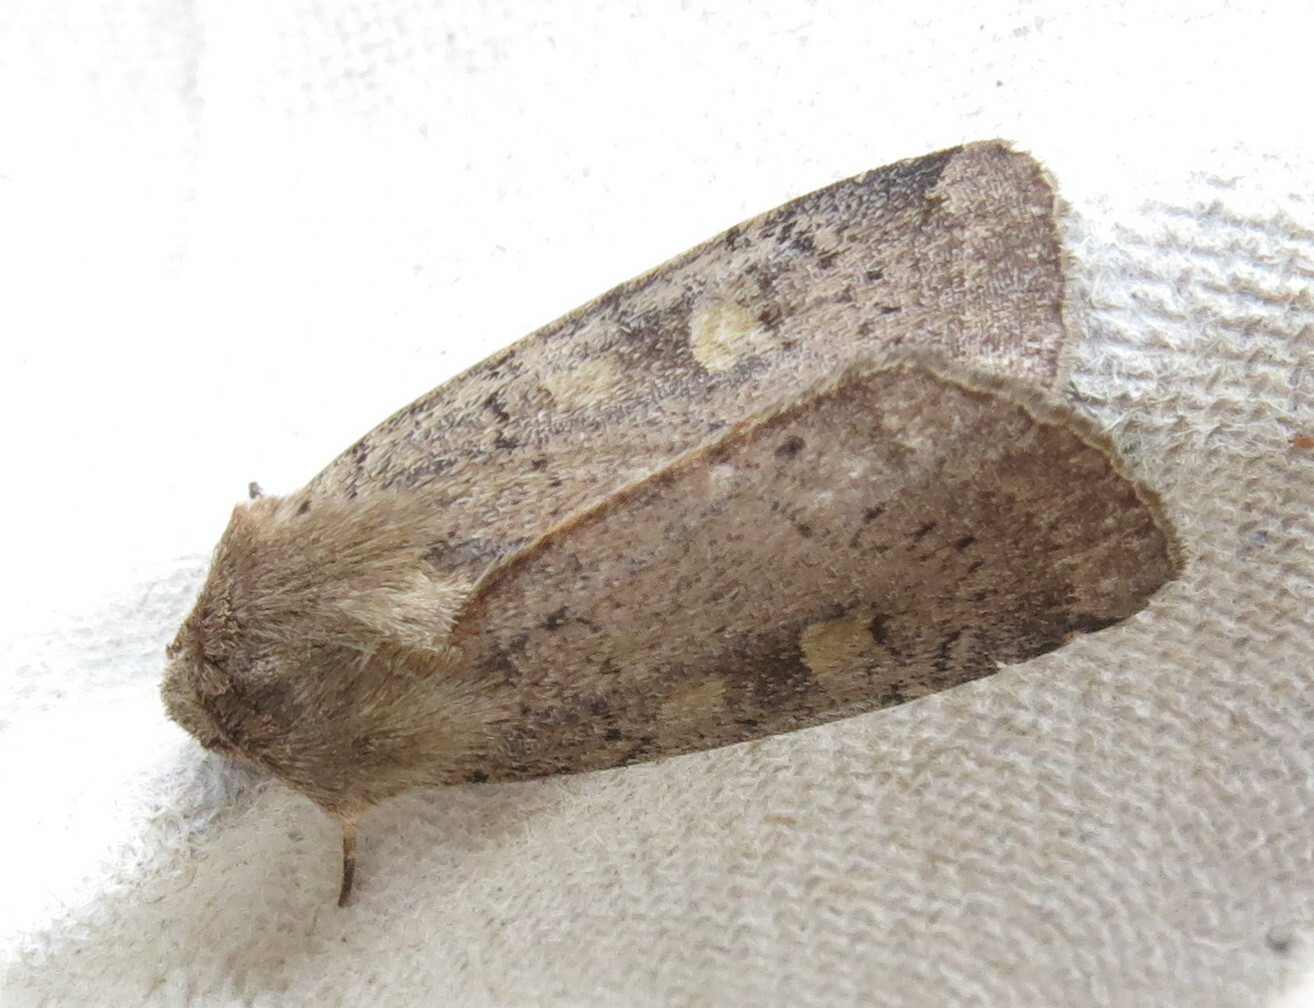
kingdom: Animalia
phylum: Arthropoda
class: Insecta
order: Lepidoptera
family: Noctuidae
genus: Xestia
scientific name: Xestia xanthographa
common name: Square-spot rustic
